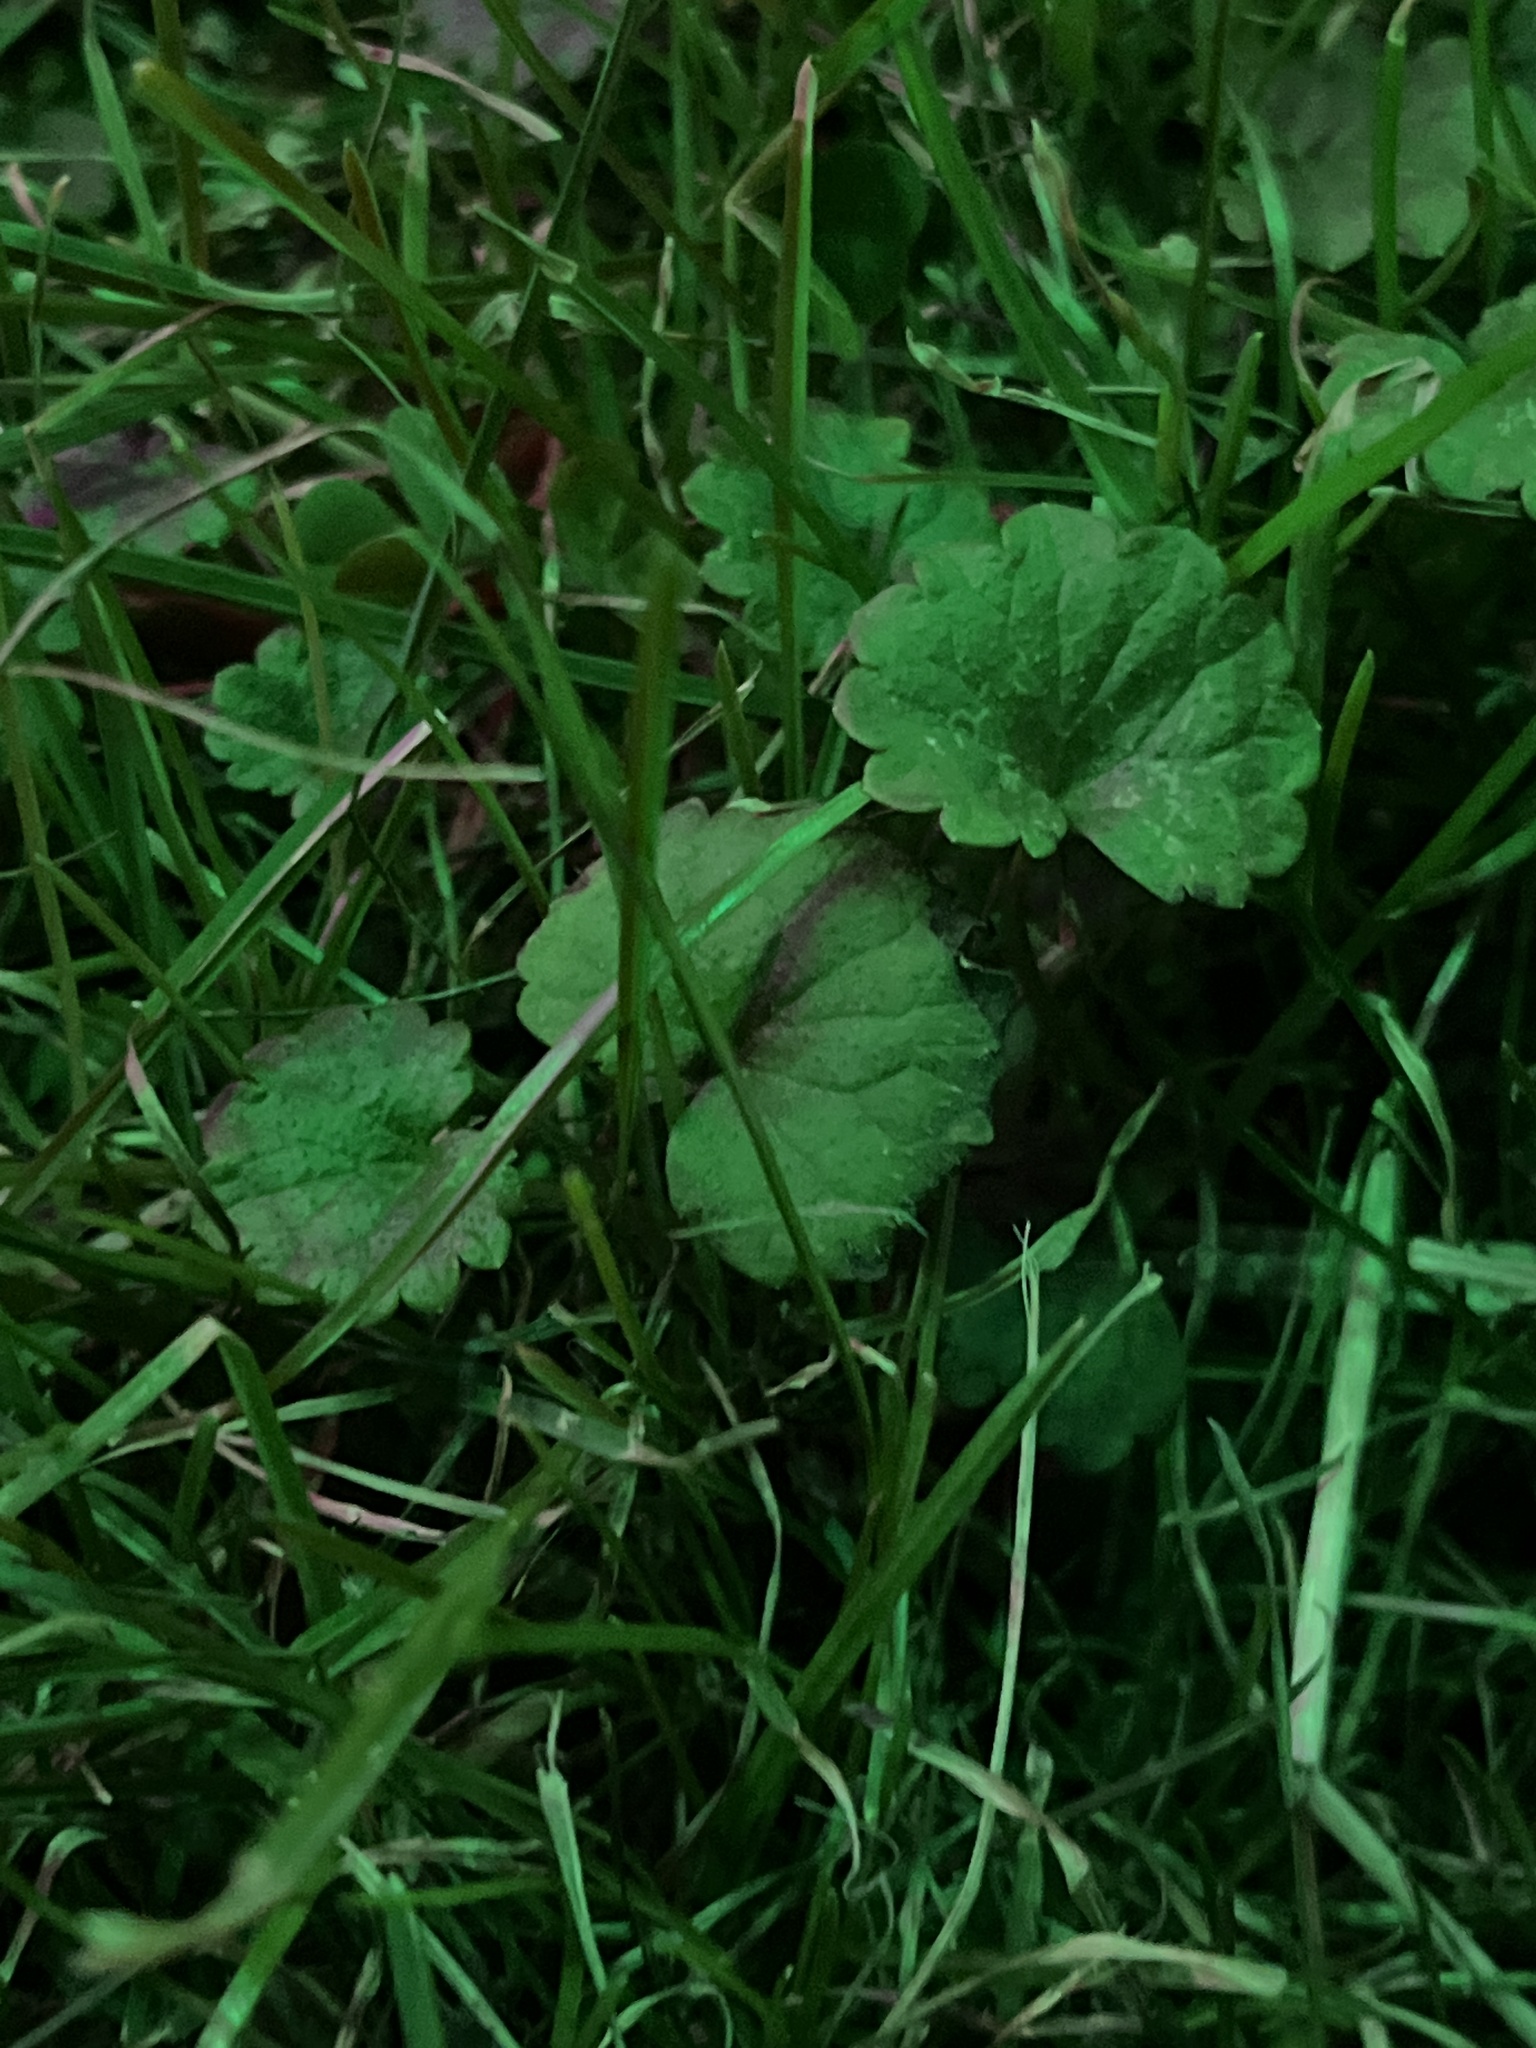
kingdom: Plantae
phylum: Tracheophyta
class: Magnoliopsida
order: Lamiales
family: Lamiaceae
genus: Glechoma
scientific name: Glechoma hederacea
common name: Ground ivy
